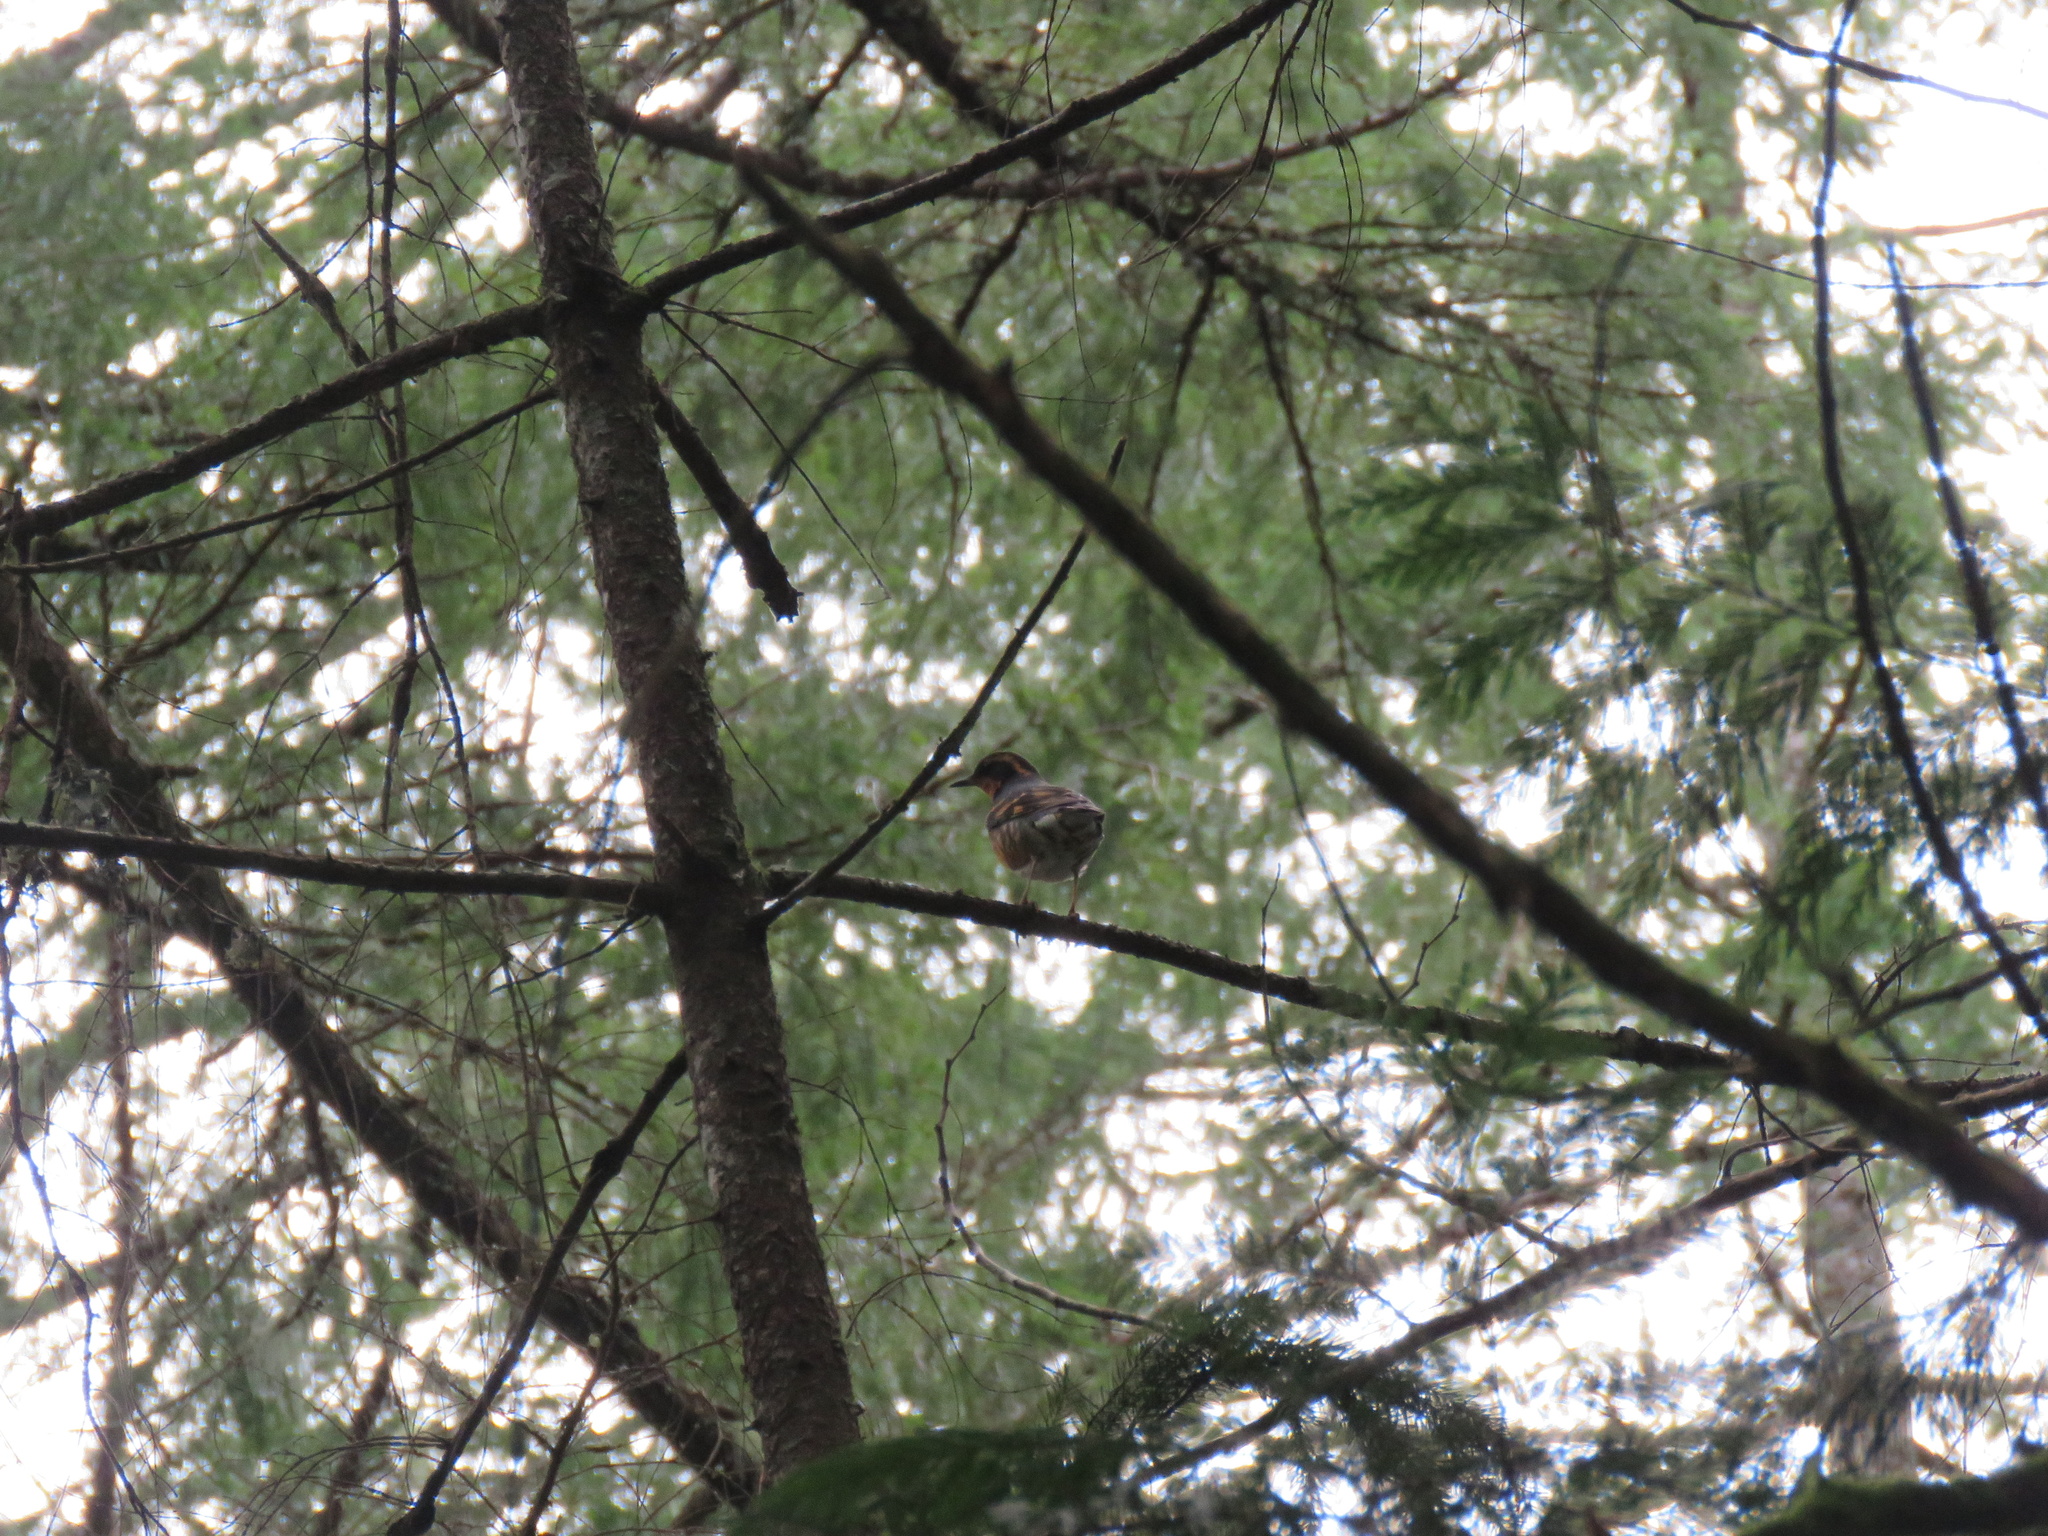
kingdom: Animalia
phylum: Chordata
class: Aves
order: Passeriformes
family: Turdidae
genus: Ixoreus
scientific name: Ixoreus naevius
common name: Varied thrush
